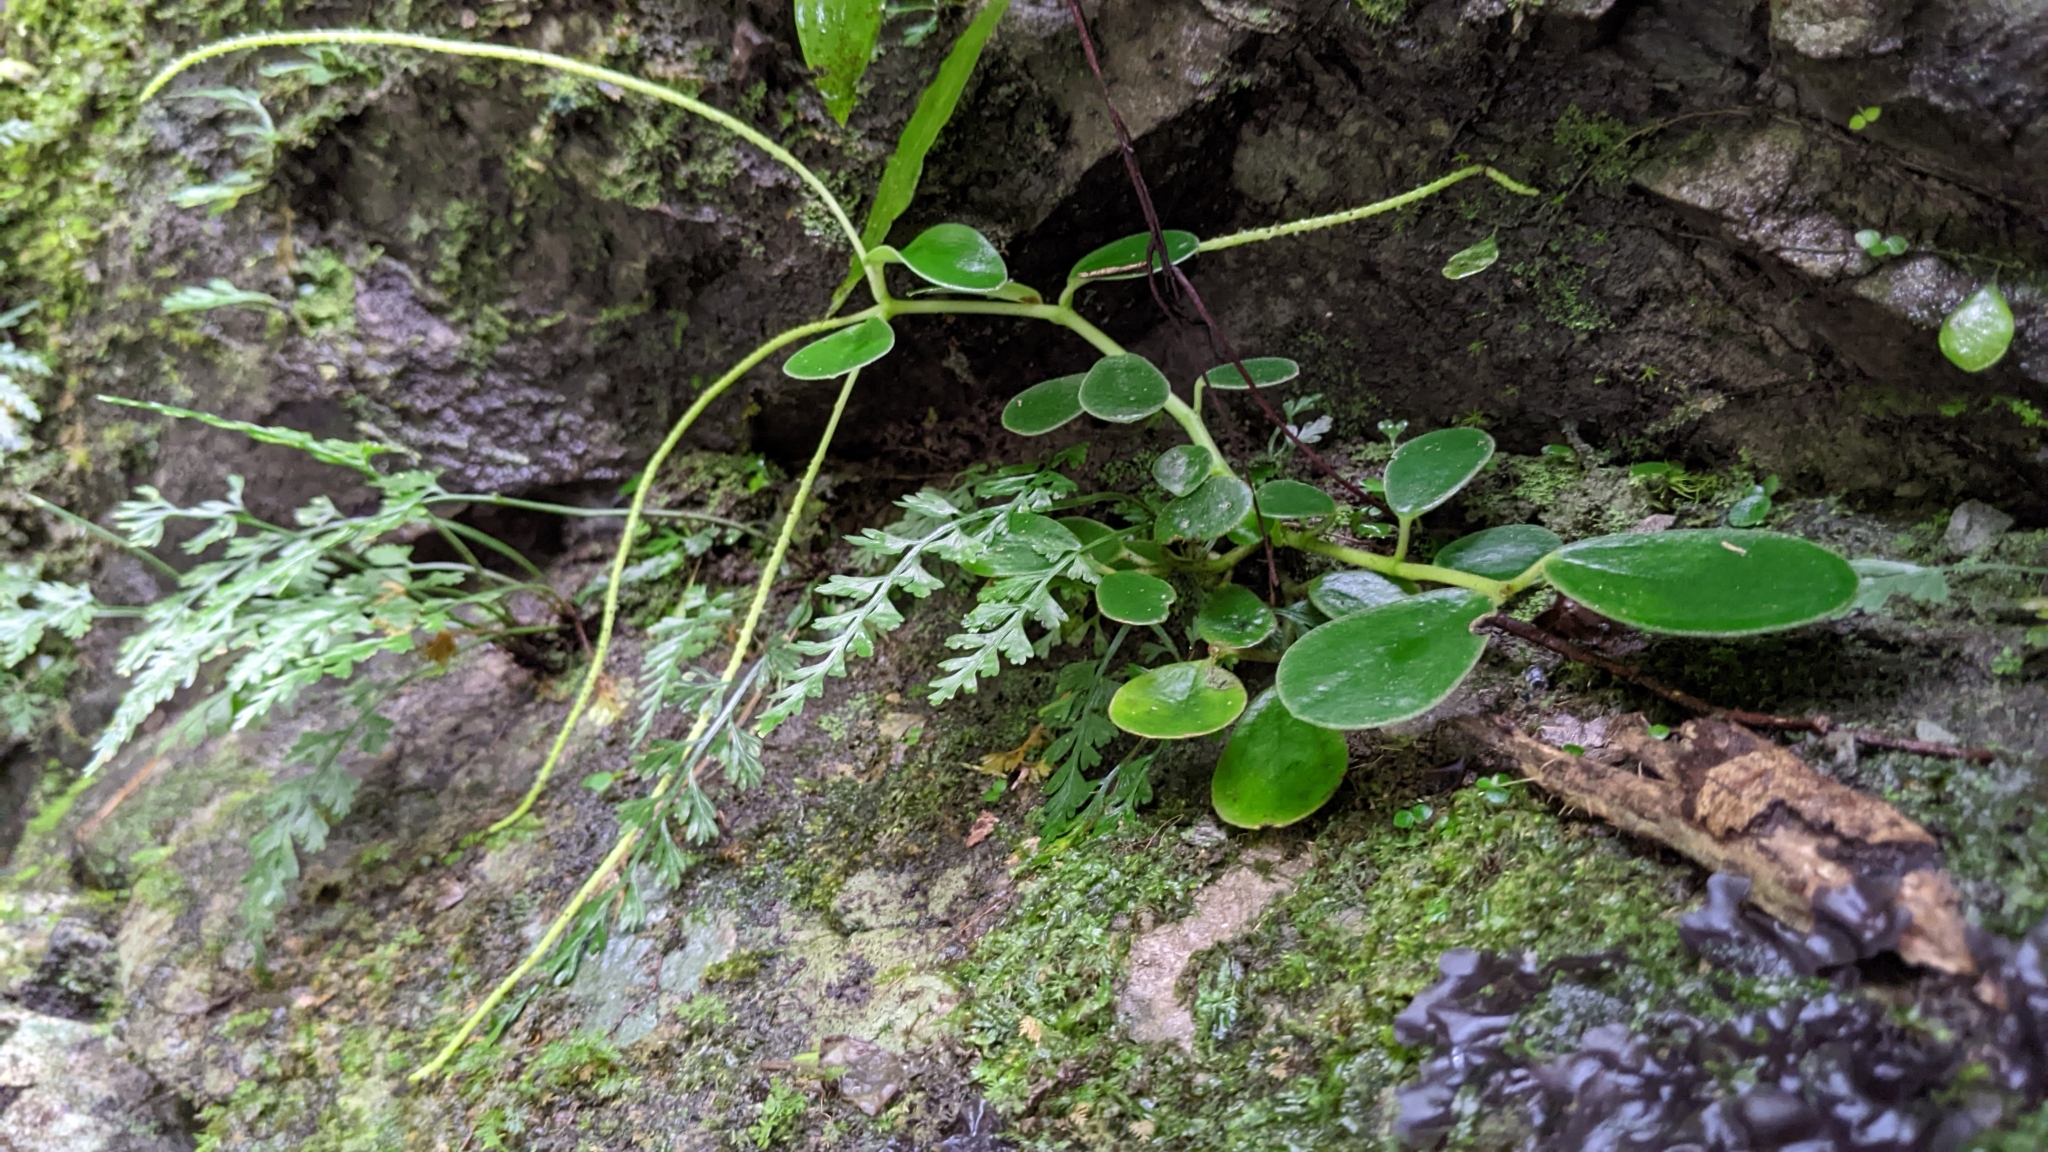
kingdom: Plantae
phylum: Tracheophyta
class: Magnoliopsida
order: Piperales
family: Piperaceae
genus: Peperomia
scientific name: Peperomia japonica
